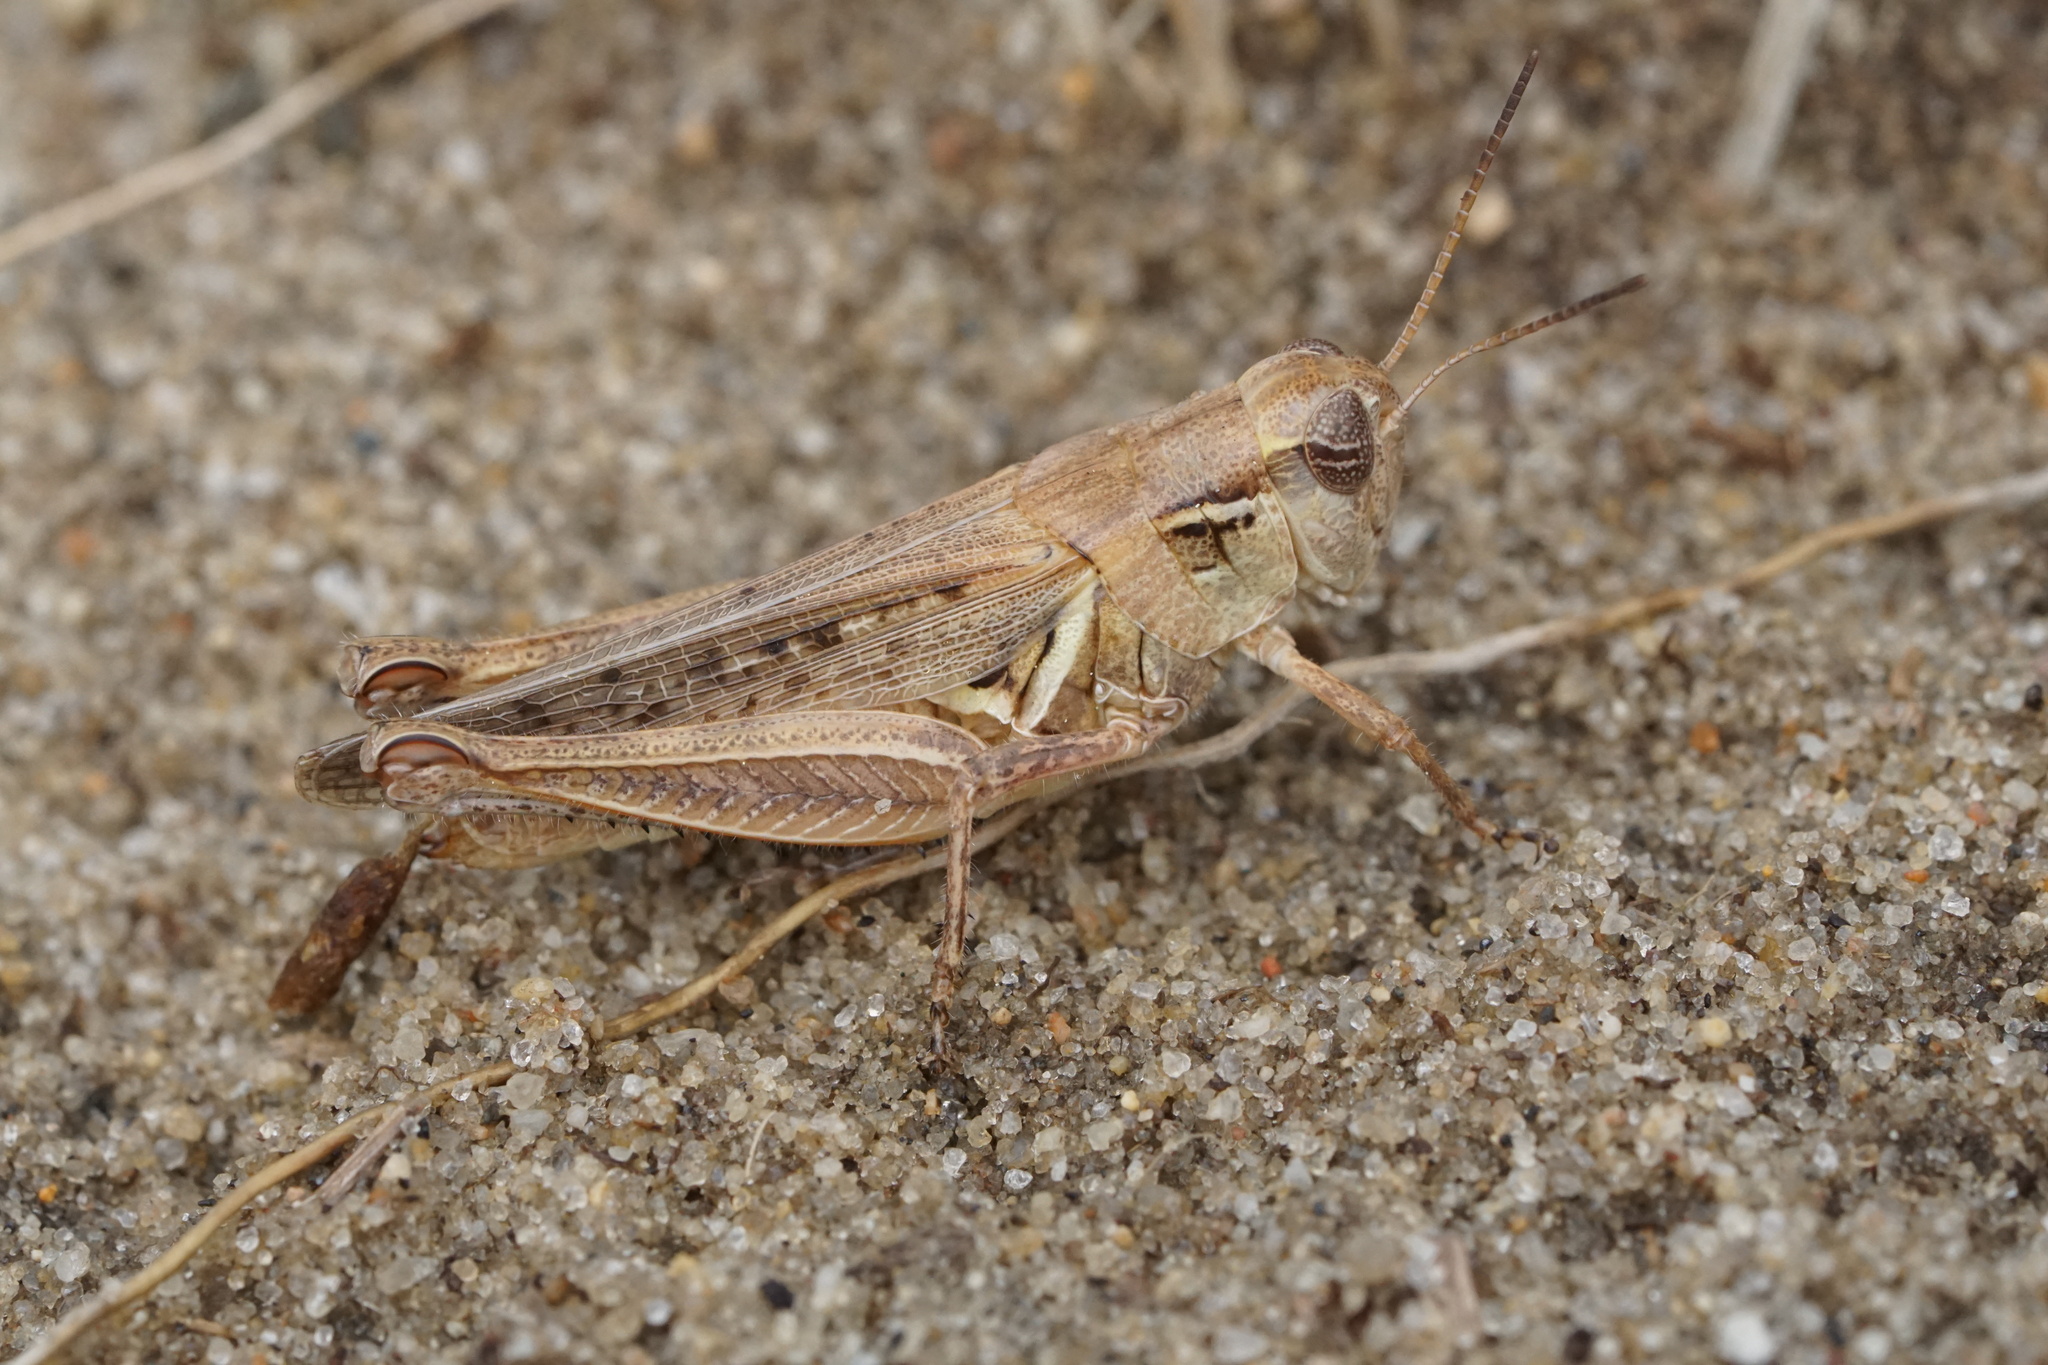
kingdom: Animalia
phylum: Arthropoda
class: Insecta
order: Orthoptera
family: Acrididae
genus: Melanoplus
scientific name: Melanoplus confusus
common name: Little pasture locust
